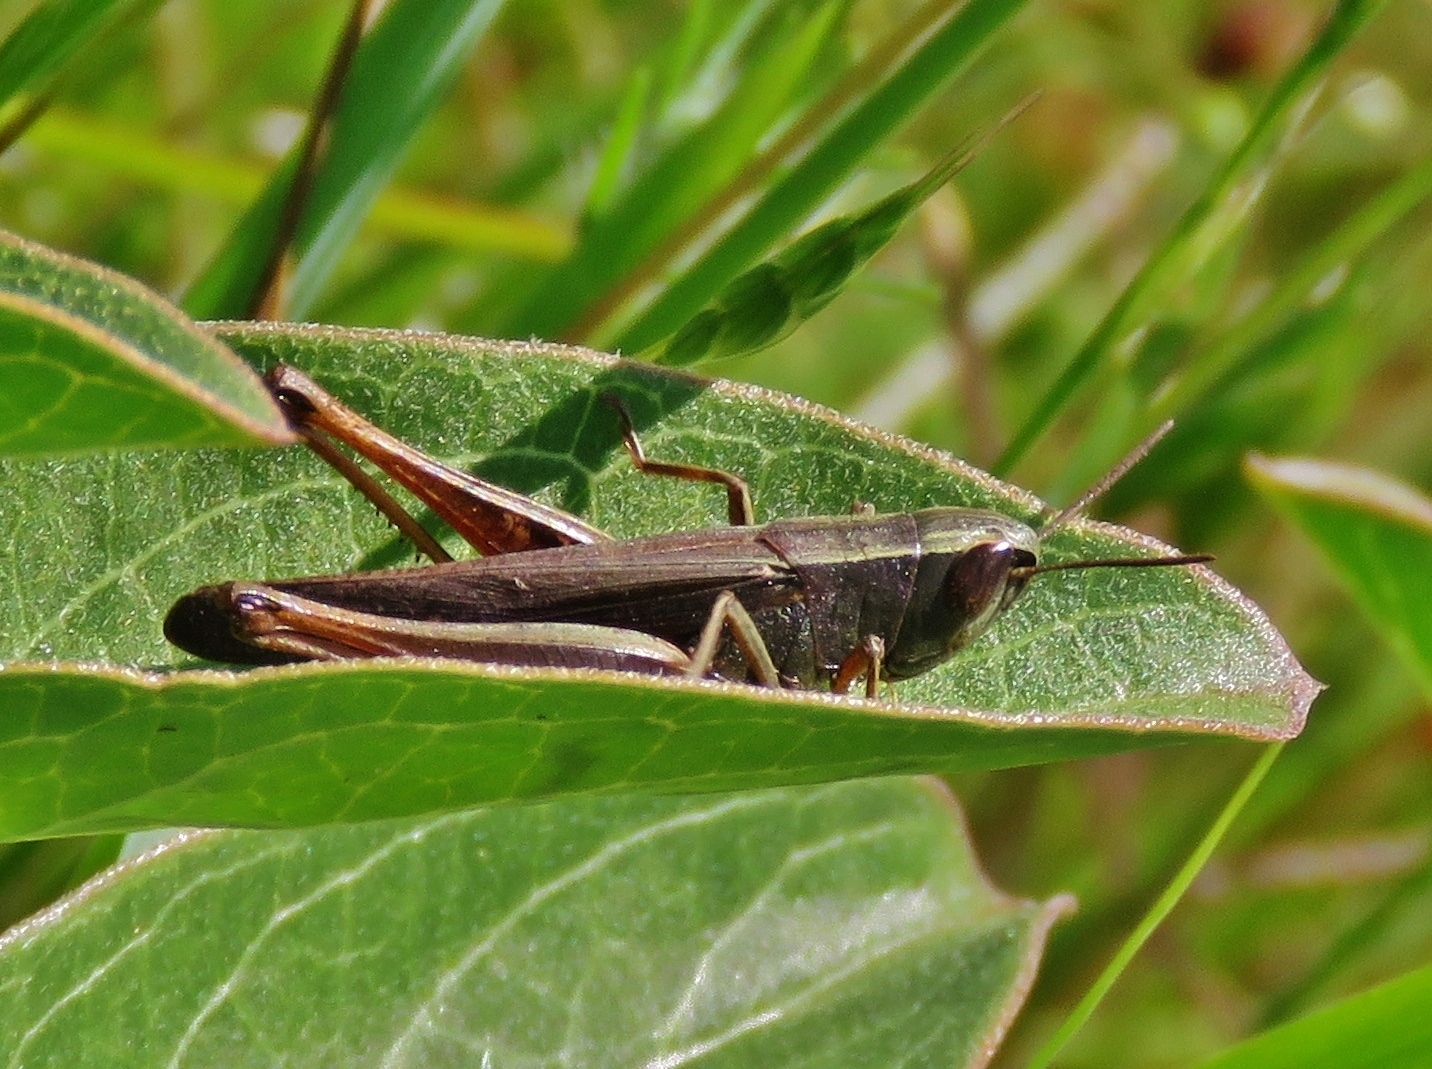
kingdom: Animalia
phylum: Arthropoda
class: Insecta
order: Orthoptera
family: Acrididae
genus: Amblytropidia
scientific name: Amblytropidia mysteca
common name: Brown winter grasshopper
